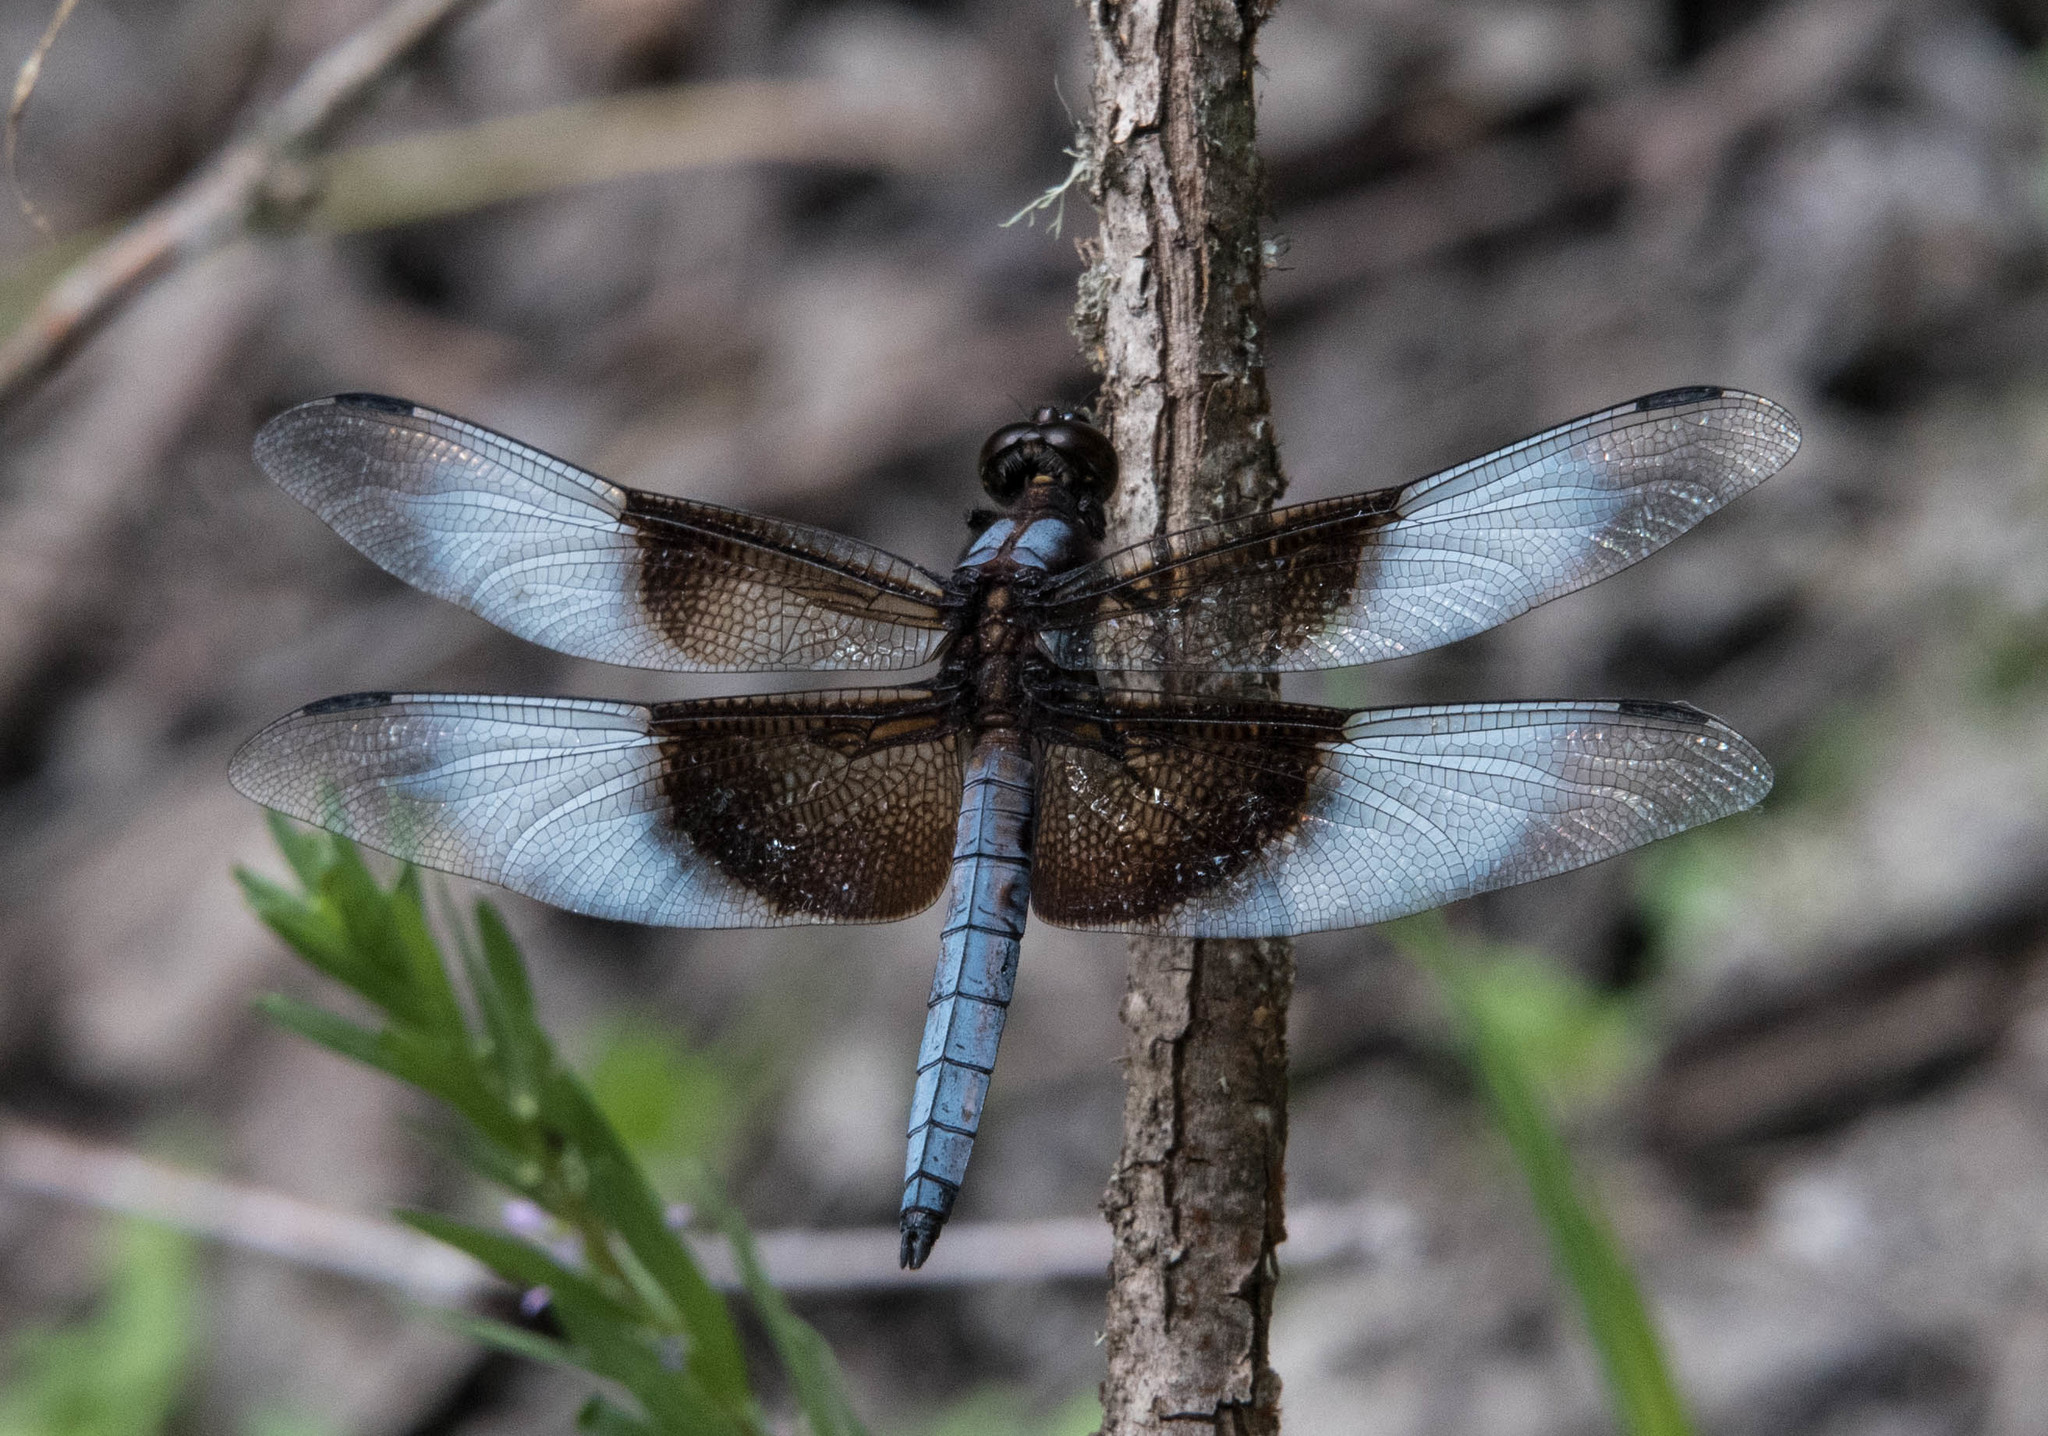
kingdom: Animalia
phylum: Arthropoda
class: Insecta
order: Odonata
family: Libellulidae
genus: Libellula
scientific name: Libellula luctuosa
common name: Widow skimmer
